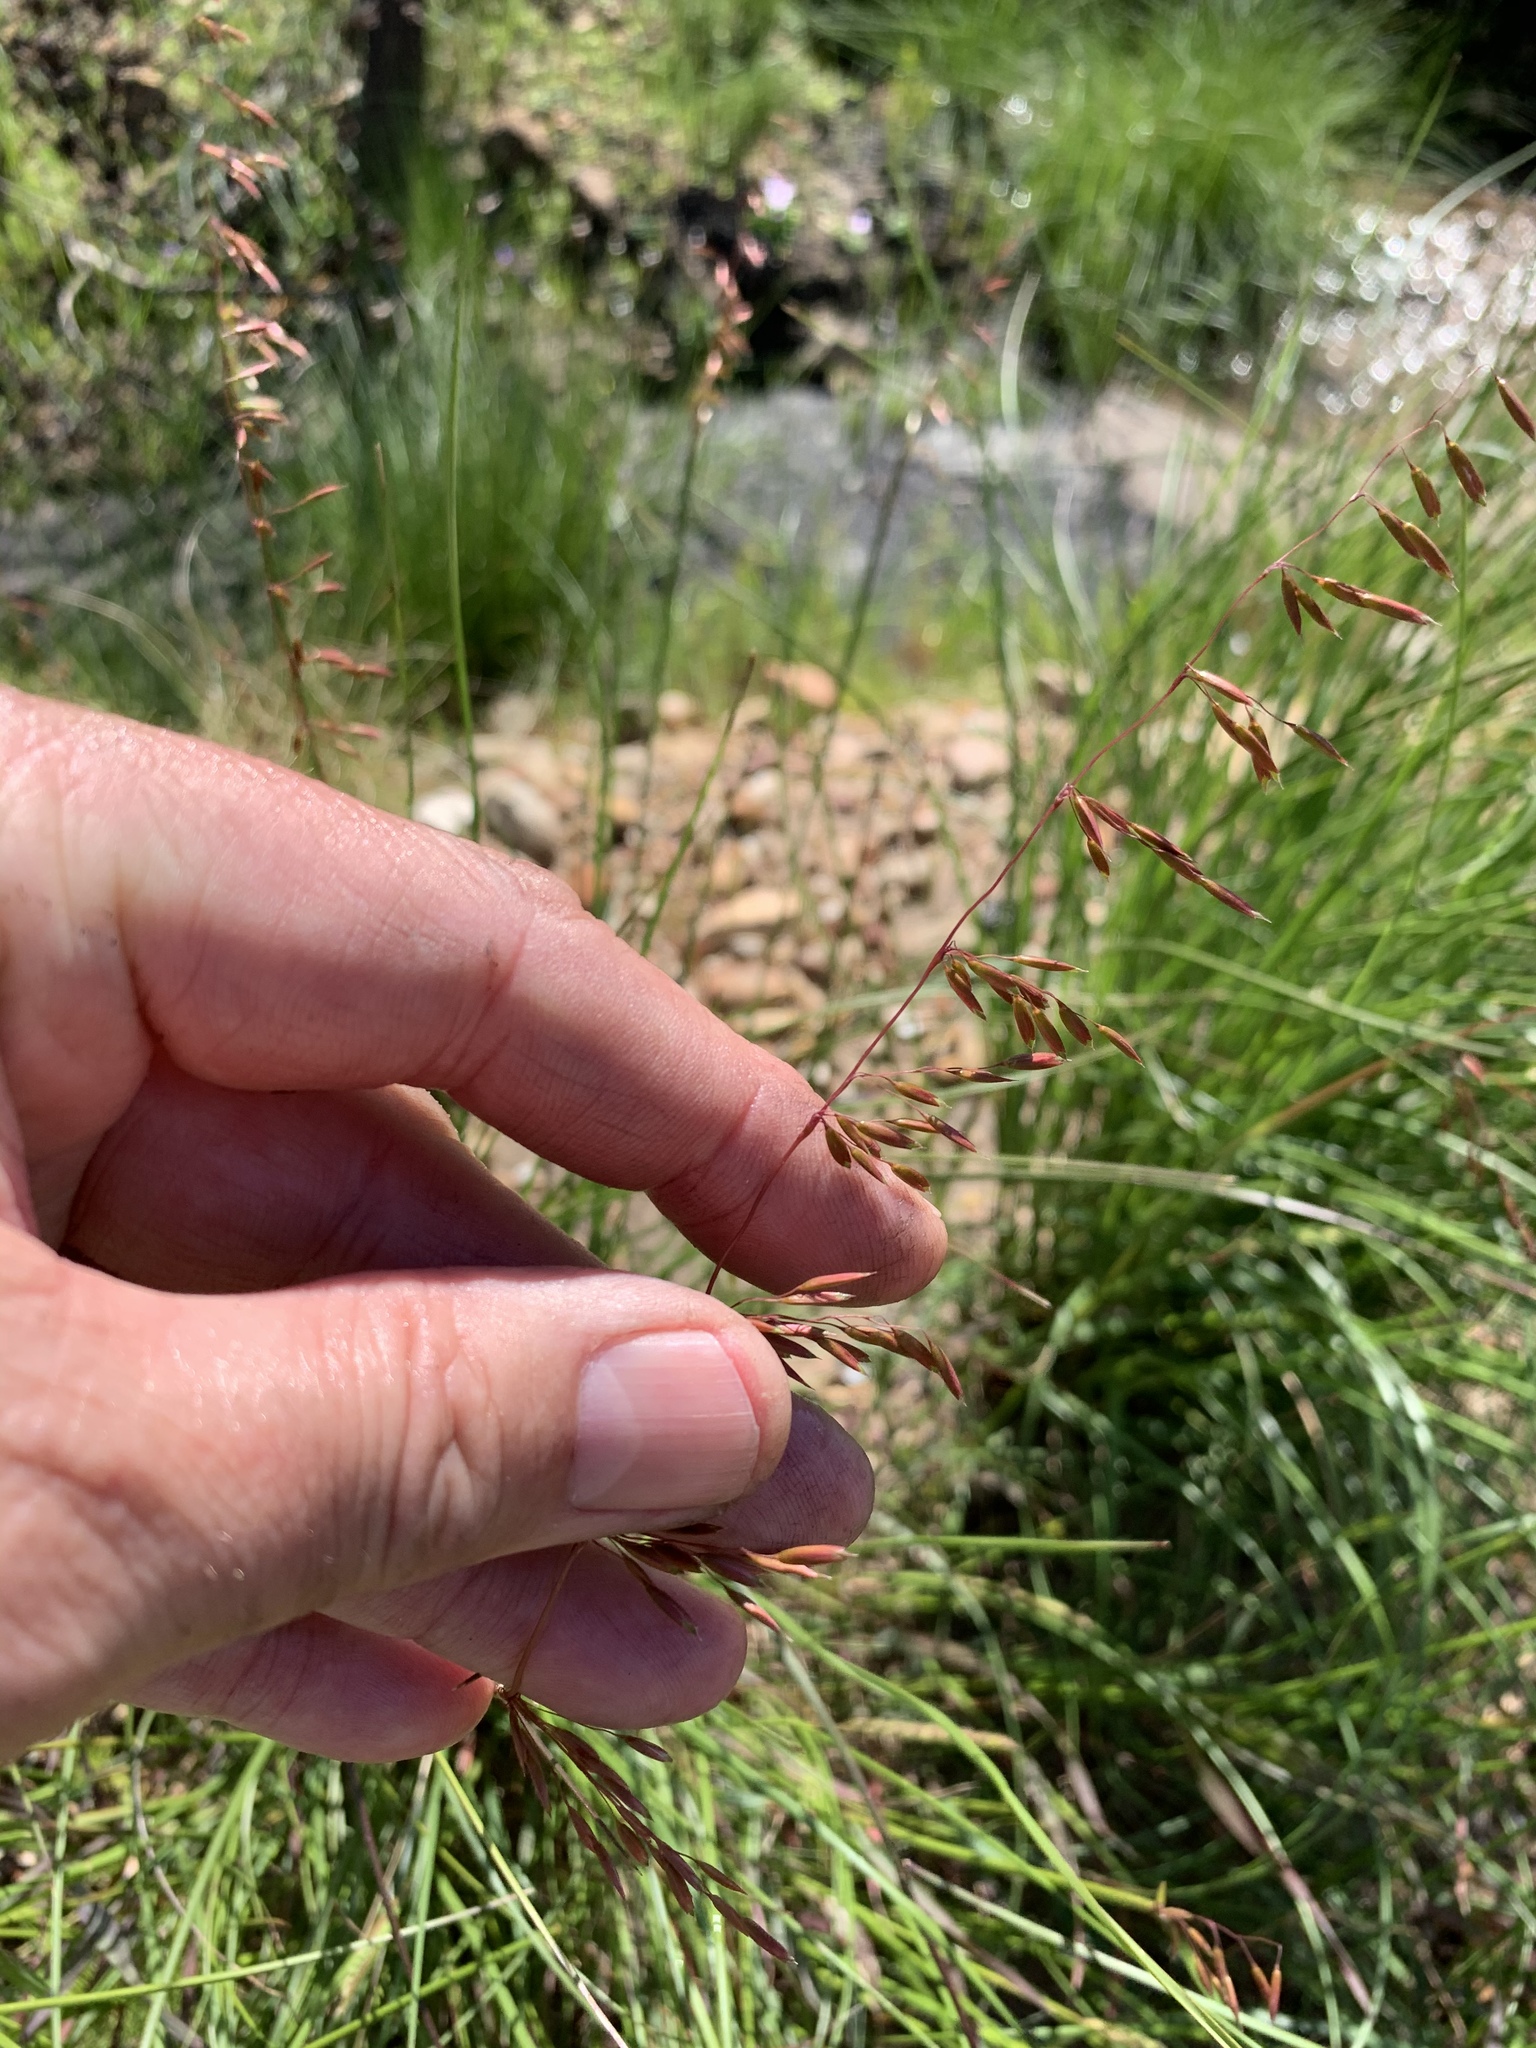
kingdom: Plantae
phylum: Tracheophyta
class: Liliopsida
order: Poales
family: Poaceae
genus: Ehrharta
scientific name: Ehrharta calycina
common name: Perennial veldtgrass
